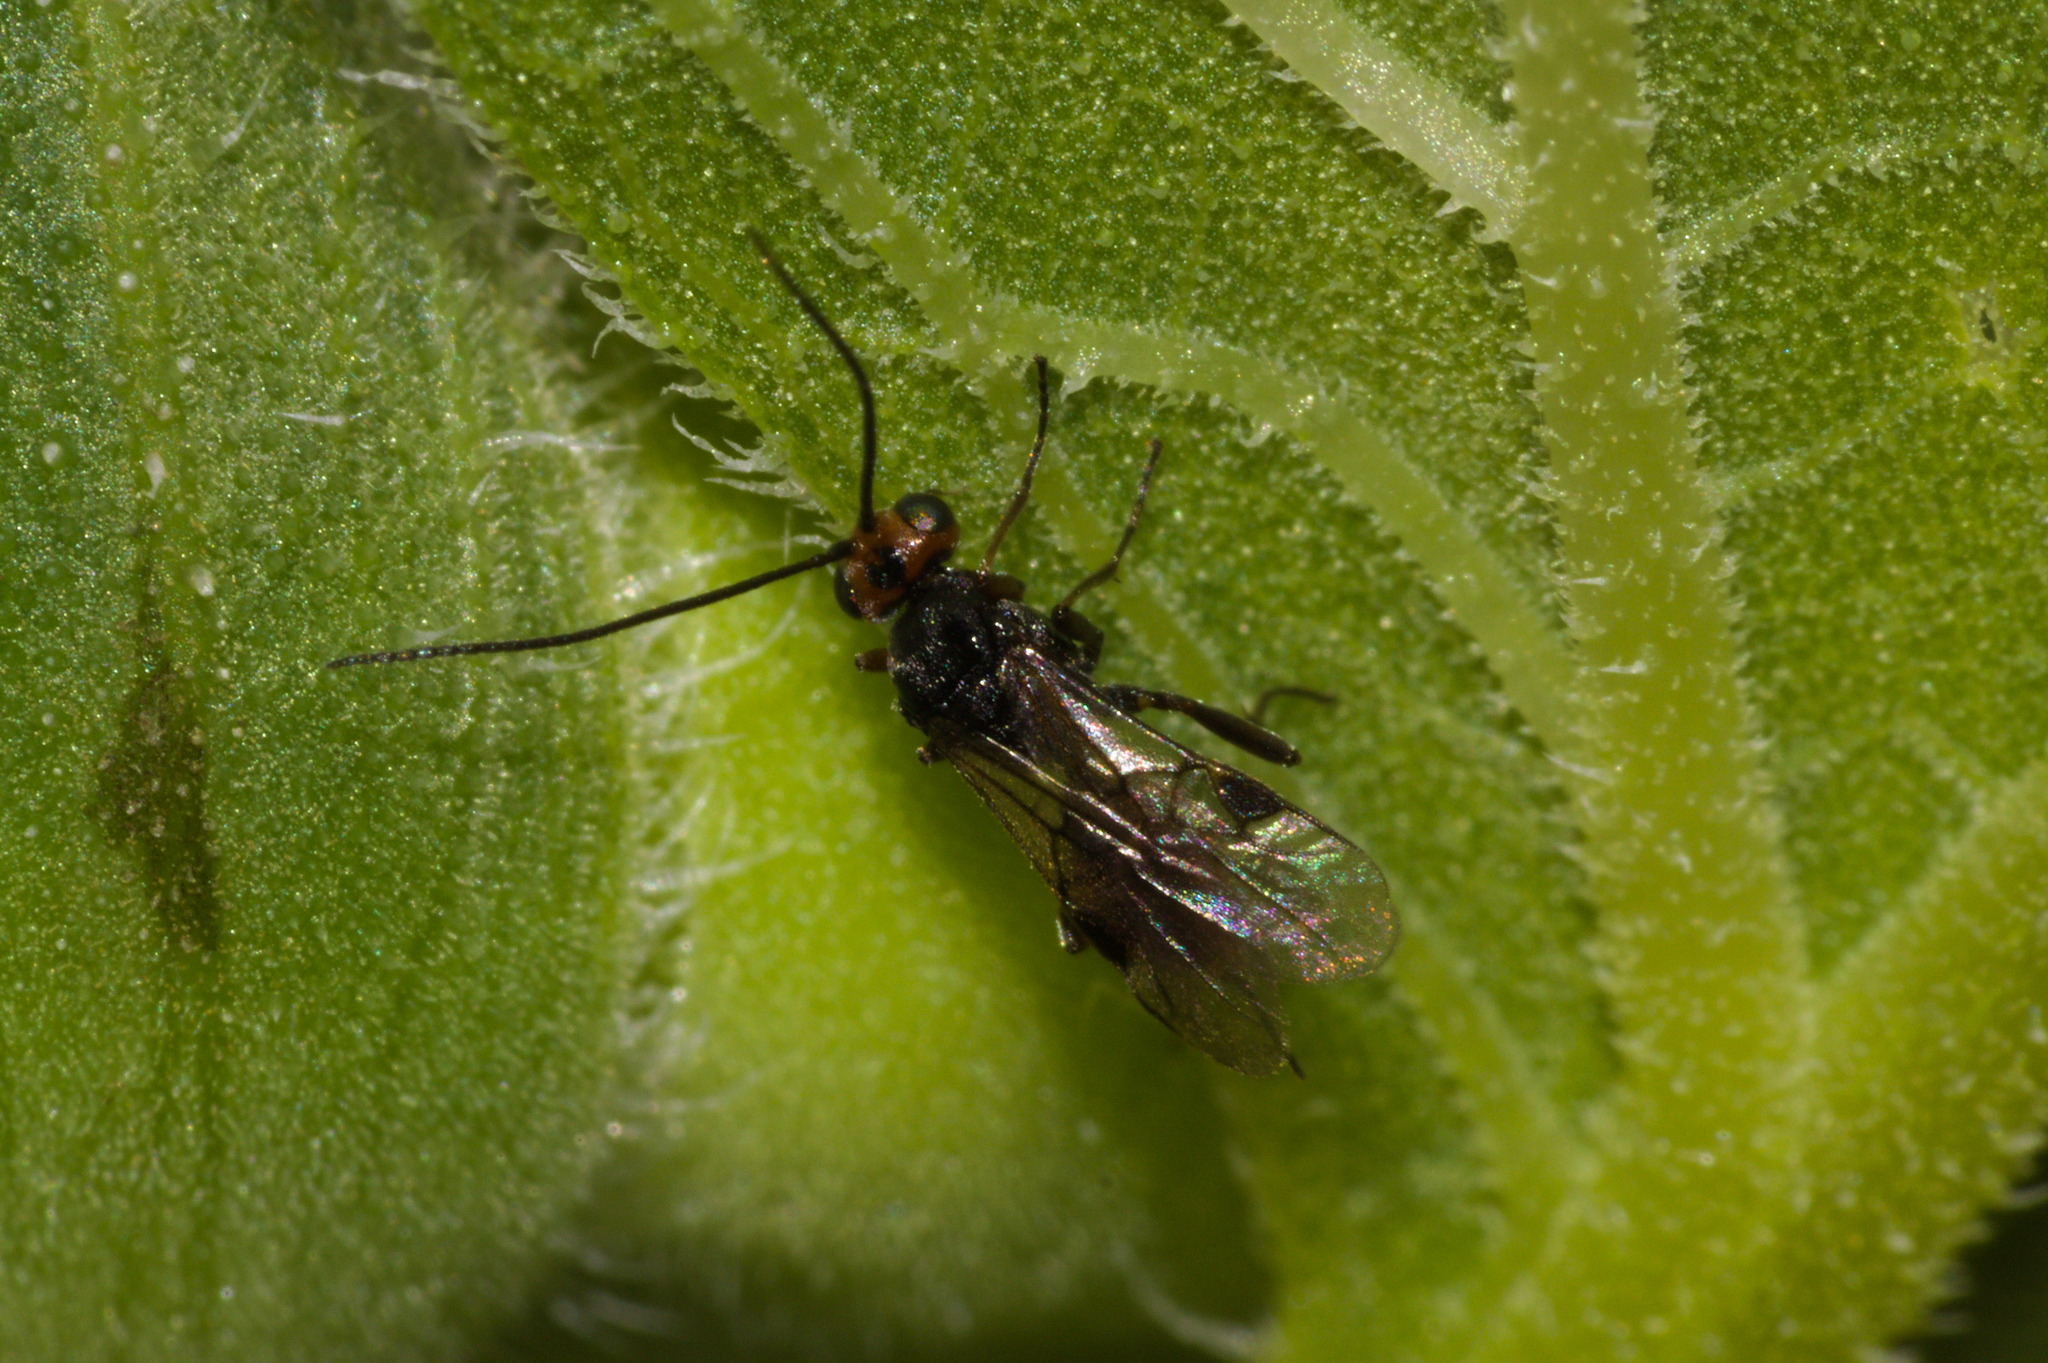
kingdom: Animalia
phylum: Arthropoda
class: Insecta
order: Hymenoptera
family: Braconidae
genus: Dinocampus
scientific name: Dinocampus coccinellae
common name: Braconid wasp
